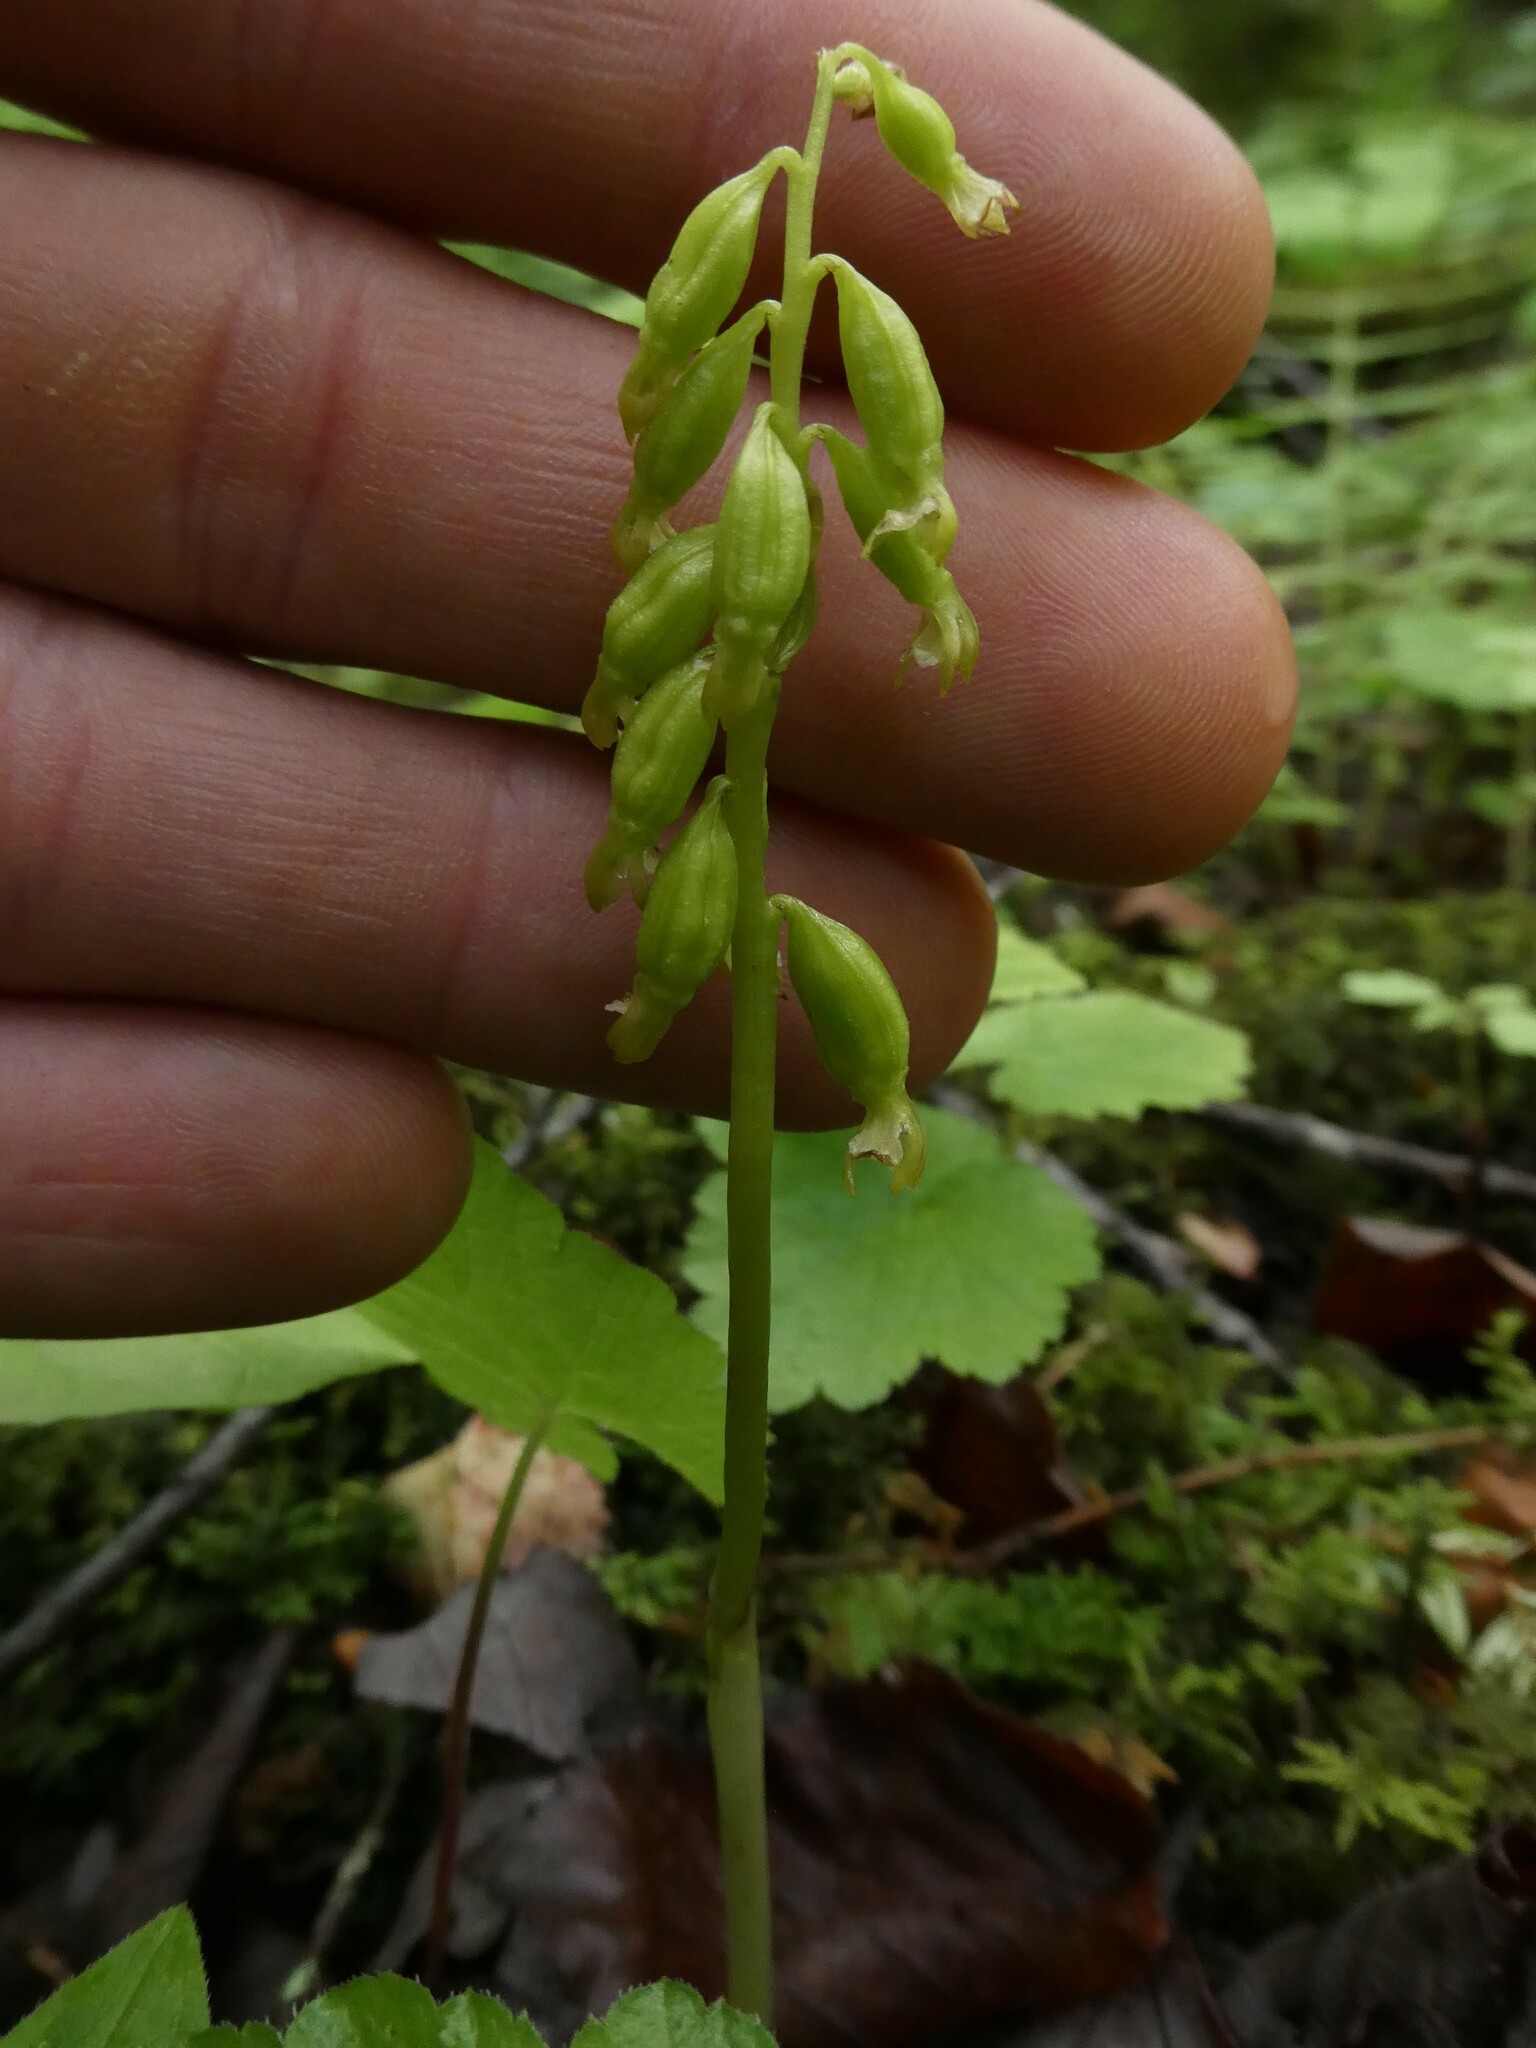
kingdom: Plantae
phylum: Tracheophyta
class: Liliopsida
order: Asparagales
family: Orchidaceae
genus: Corallorhiza
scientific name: Corallorhiza trifida
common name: Yellow coralroot
